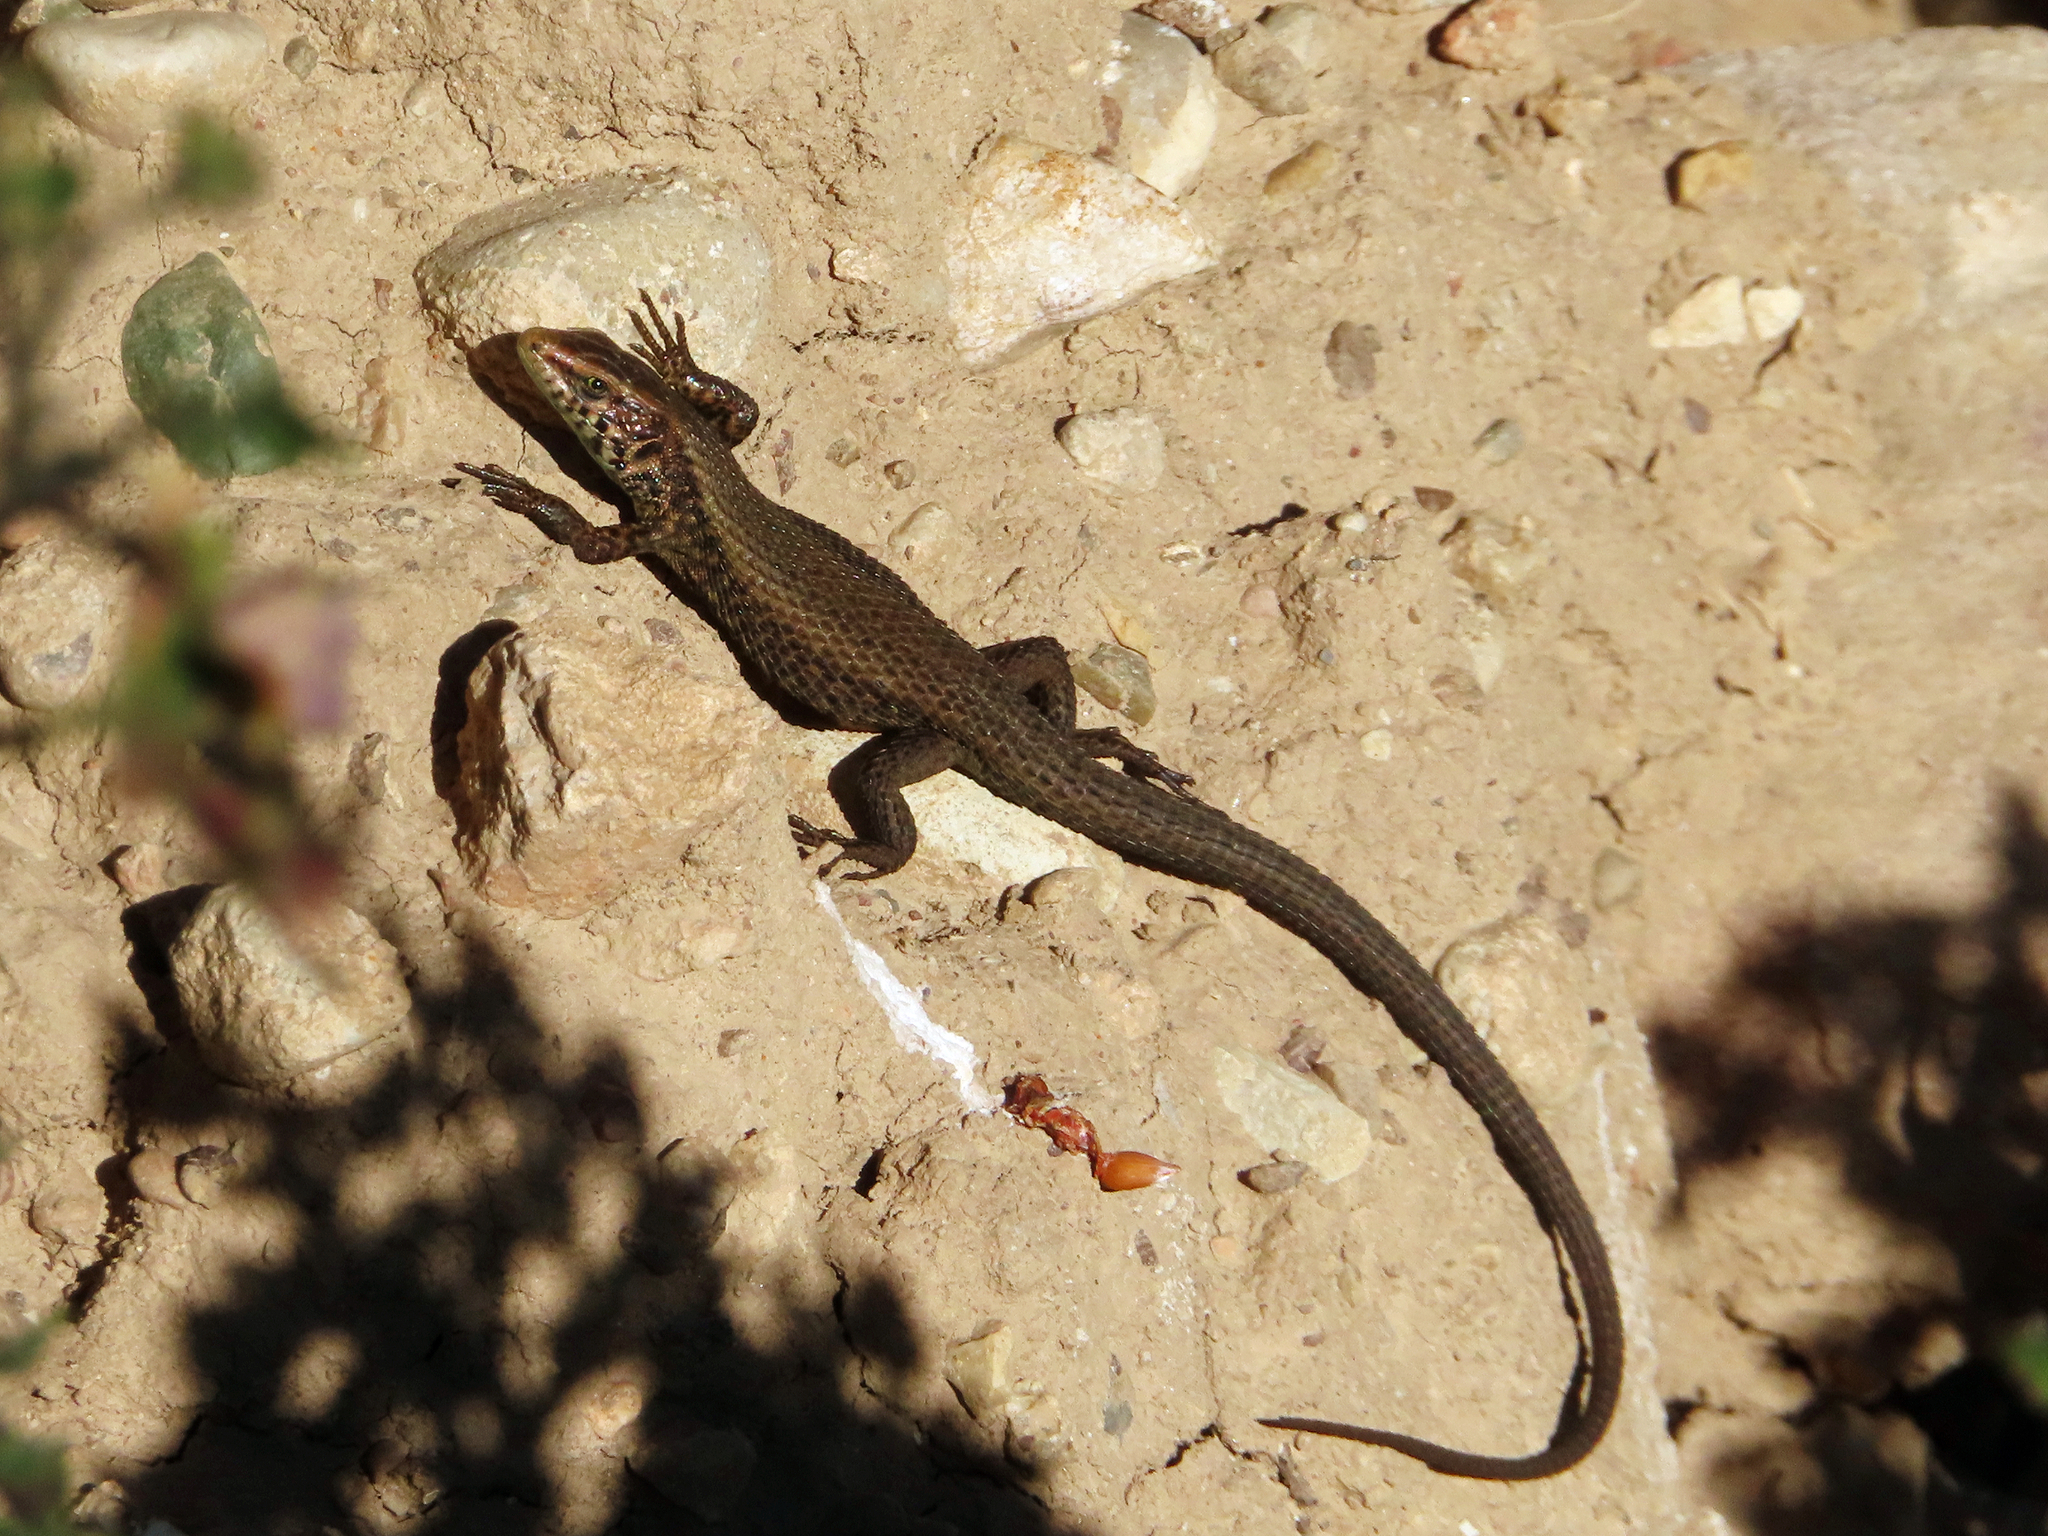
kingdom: Animalia
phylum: Chordata
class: Squamata
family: Lacertidae
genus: Algyroides
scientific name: Algyroides moreoticus
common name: Greek algyroides
